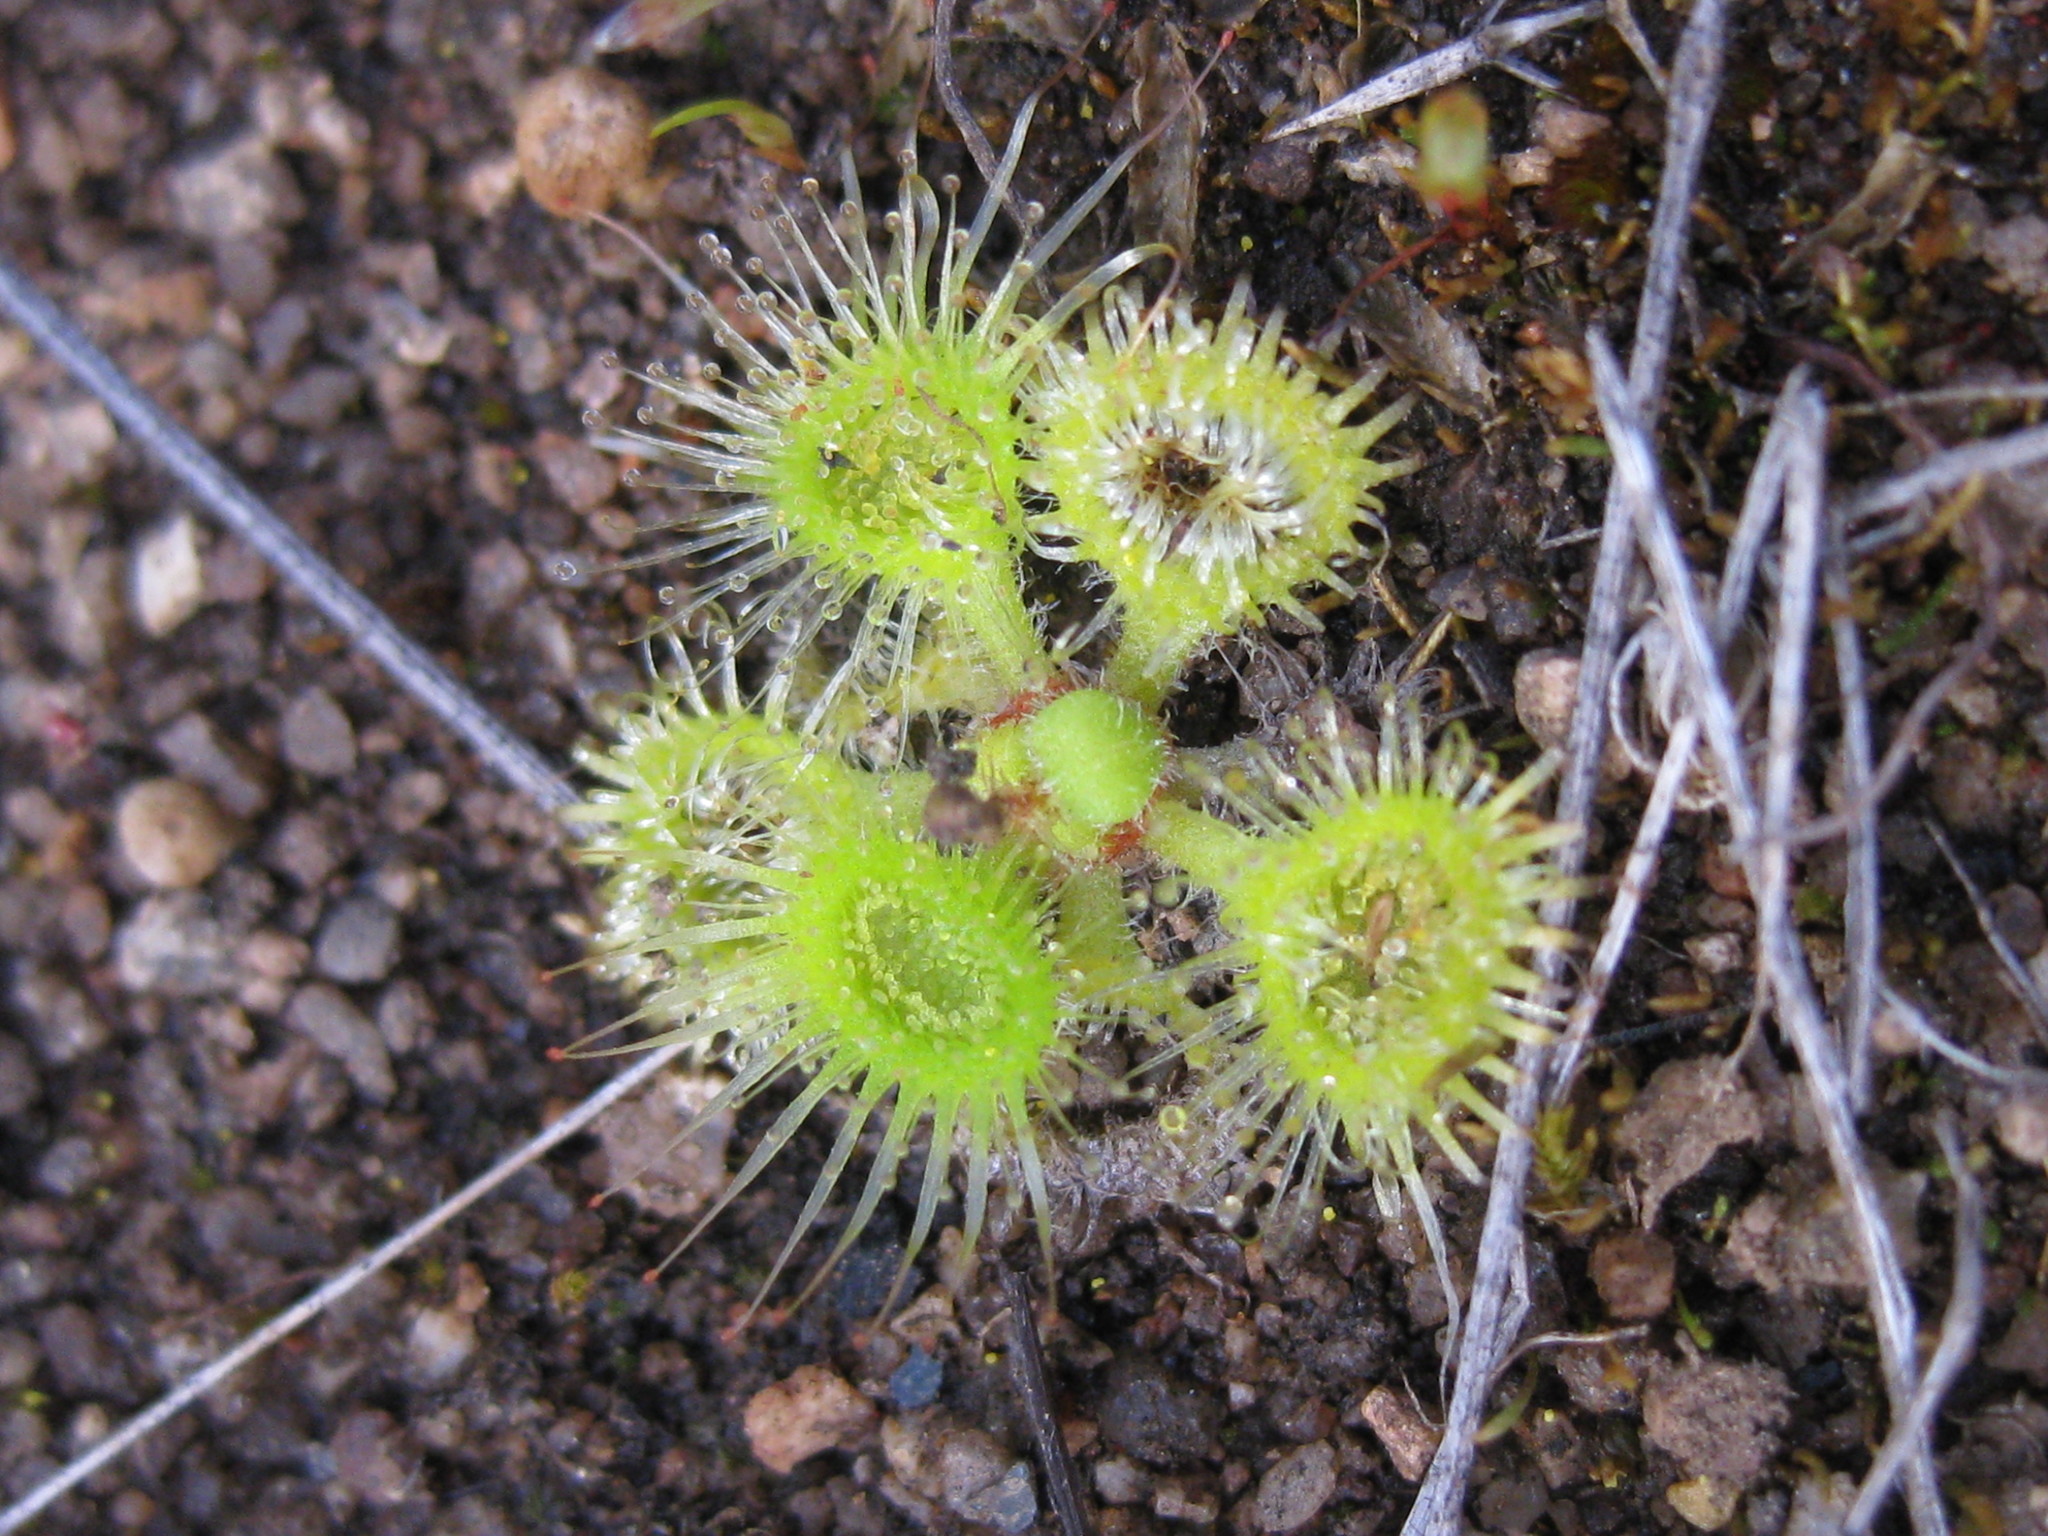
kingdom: Plantae
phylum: Tracheophyta
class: Magnoliopsida
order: Caryophyllales
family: Droseraceae
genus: Drosera
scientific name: Drosera glanduligera
